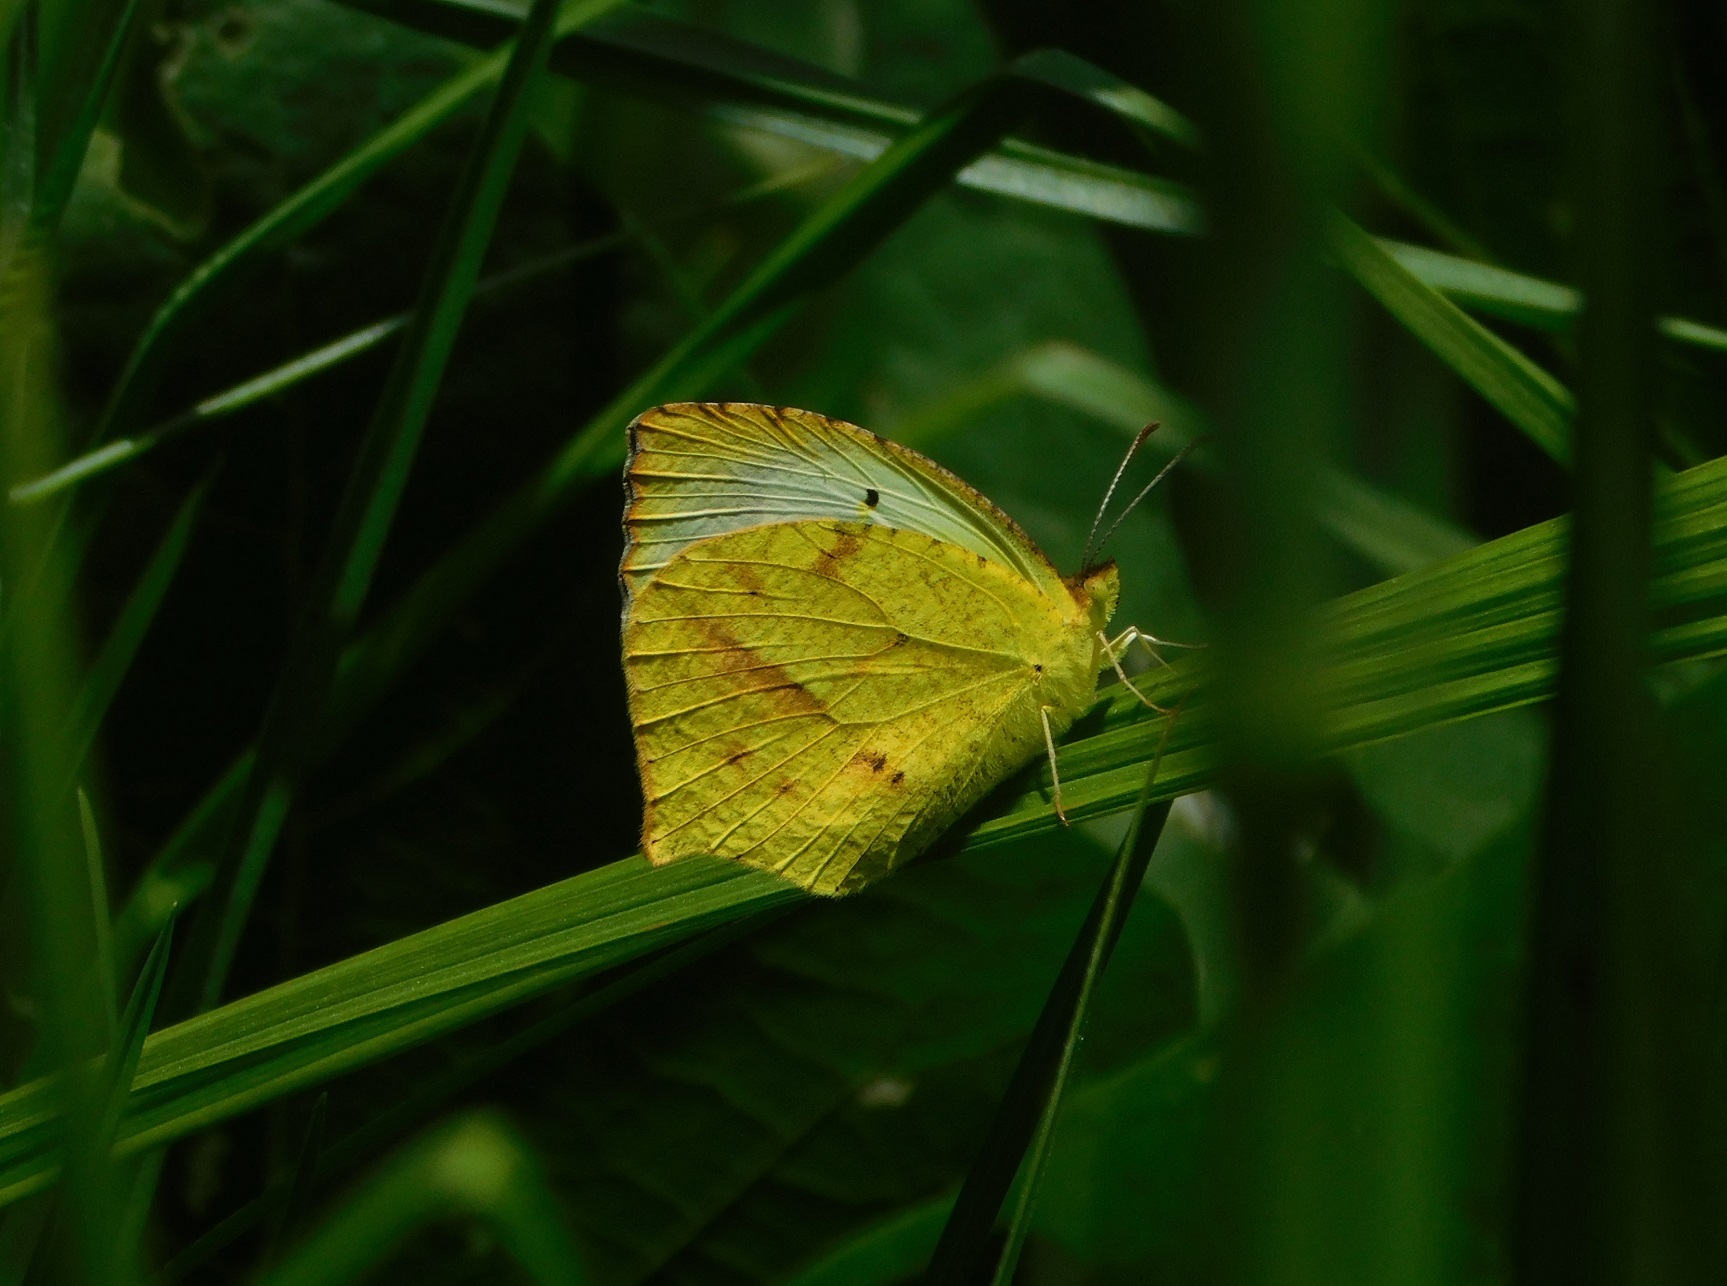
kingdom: Animalia
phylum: Arthropoda
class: Insecta
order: Lepidoptera
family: Pieridae
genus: Abaeis
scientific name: Abaeis mexicana
